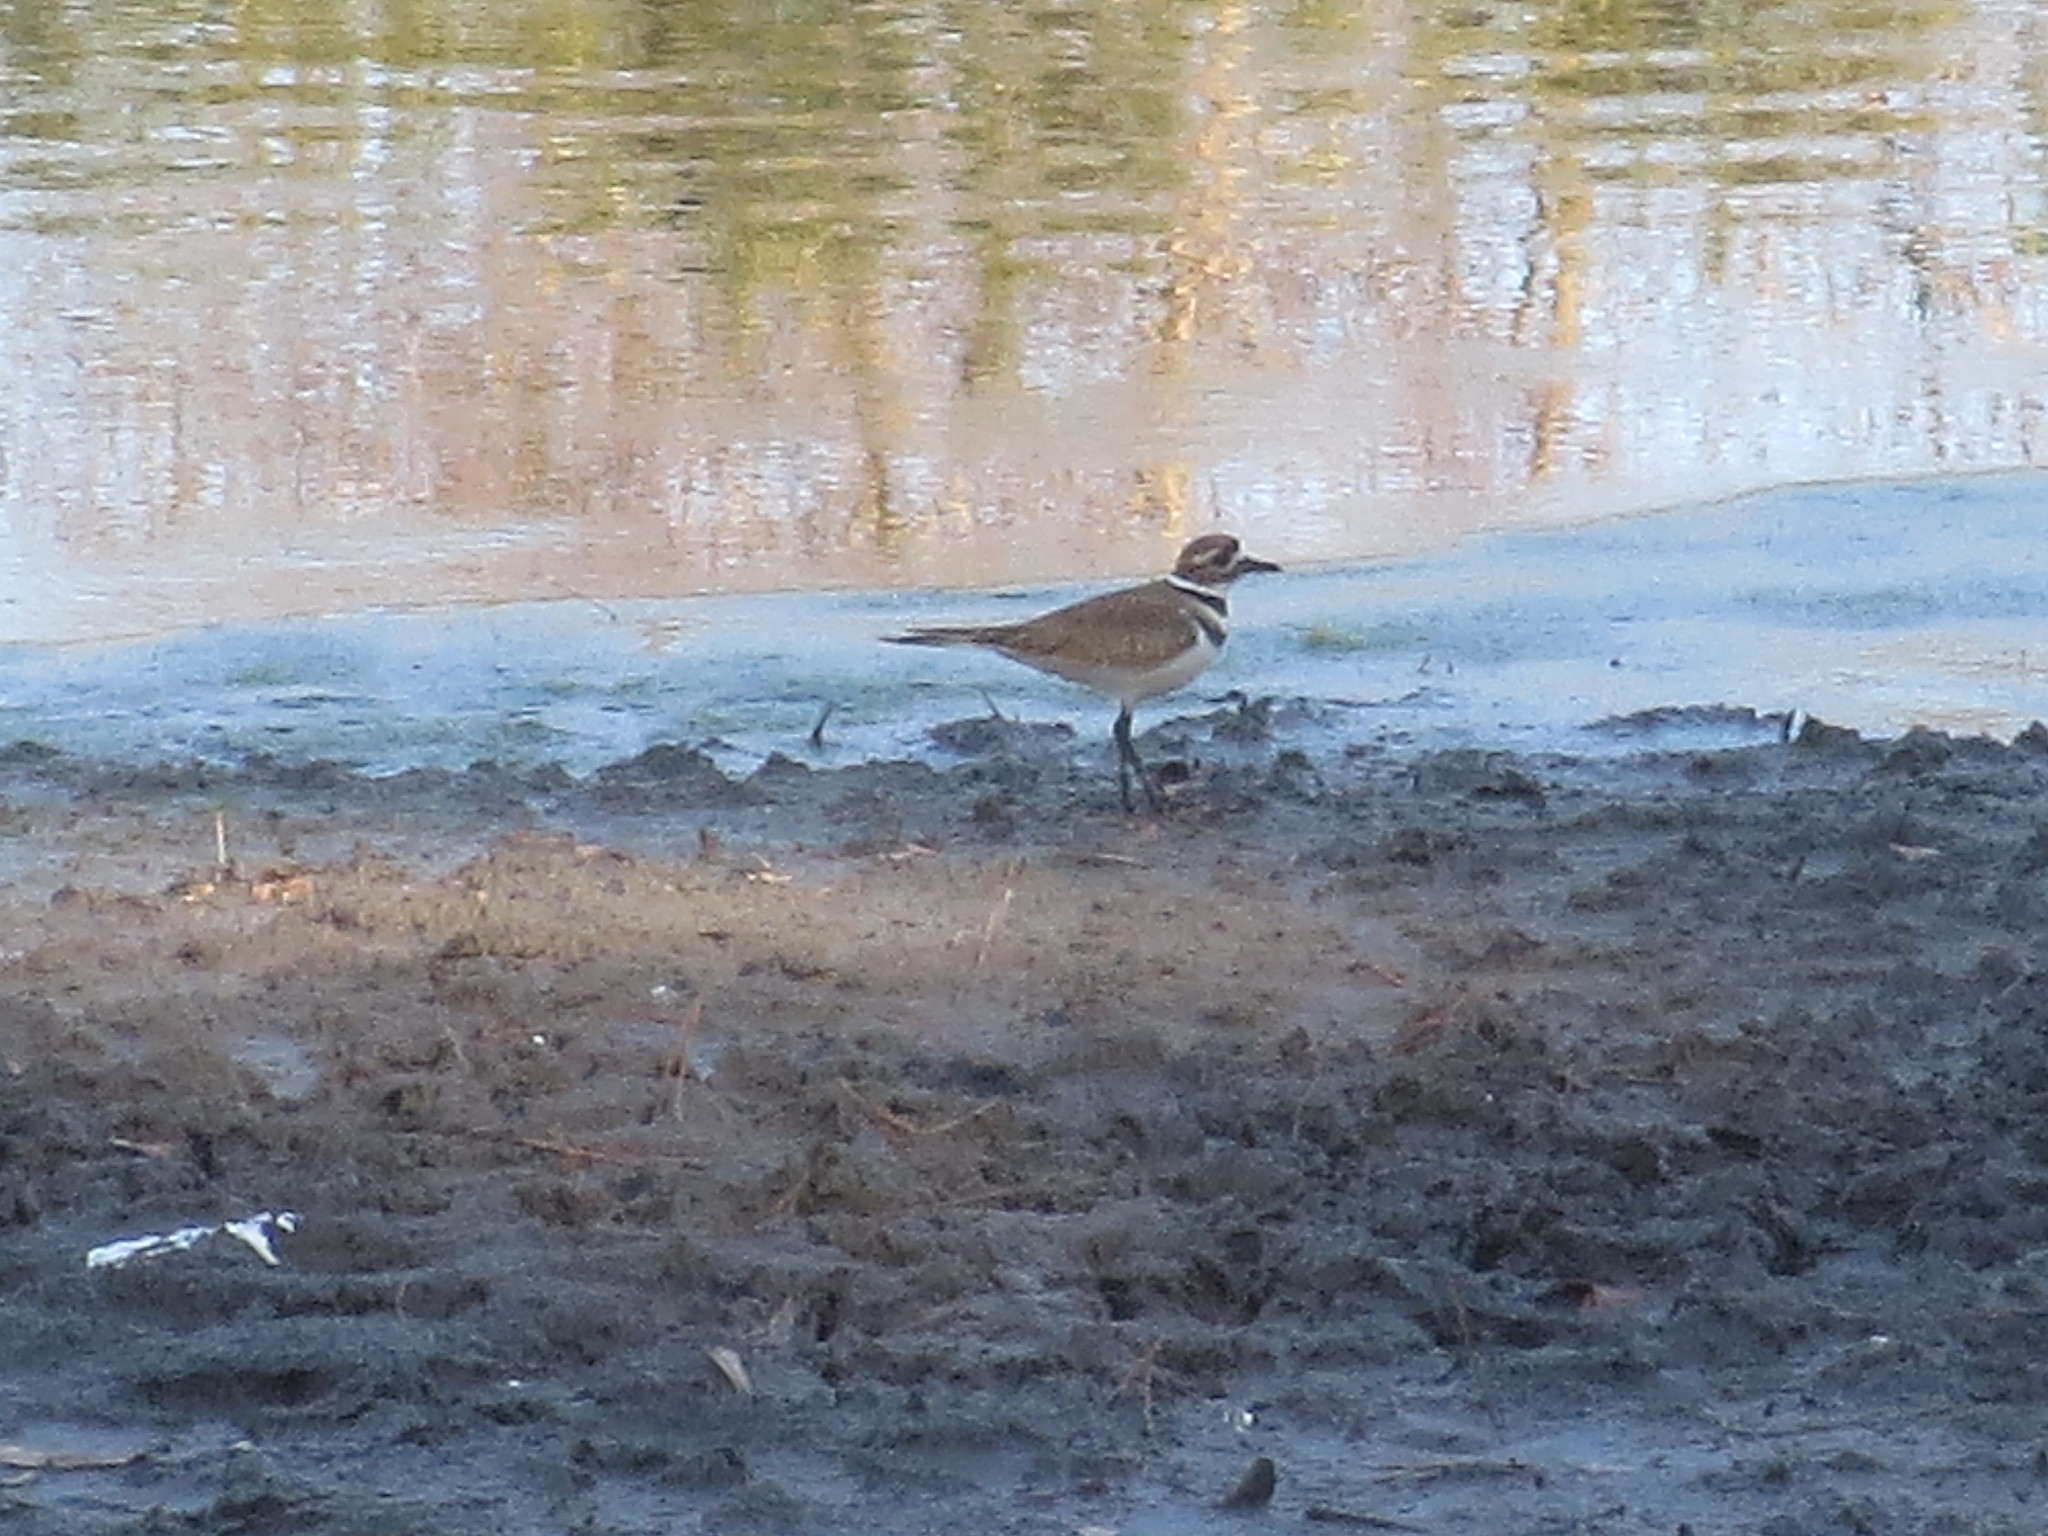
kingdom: Animalia
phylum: Chordata
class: Aves
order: Charadriiformes
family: Charadriidae
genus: Charadrius
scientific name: Charadrius vociferus
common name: Killdeer
